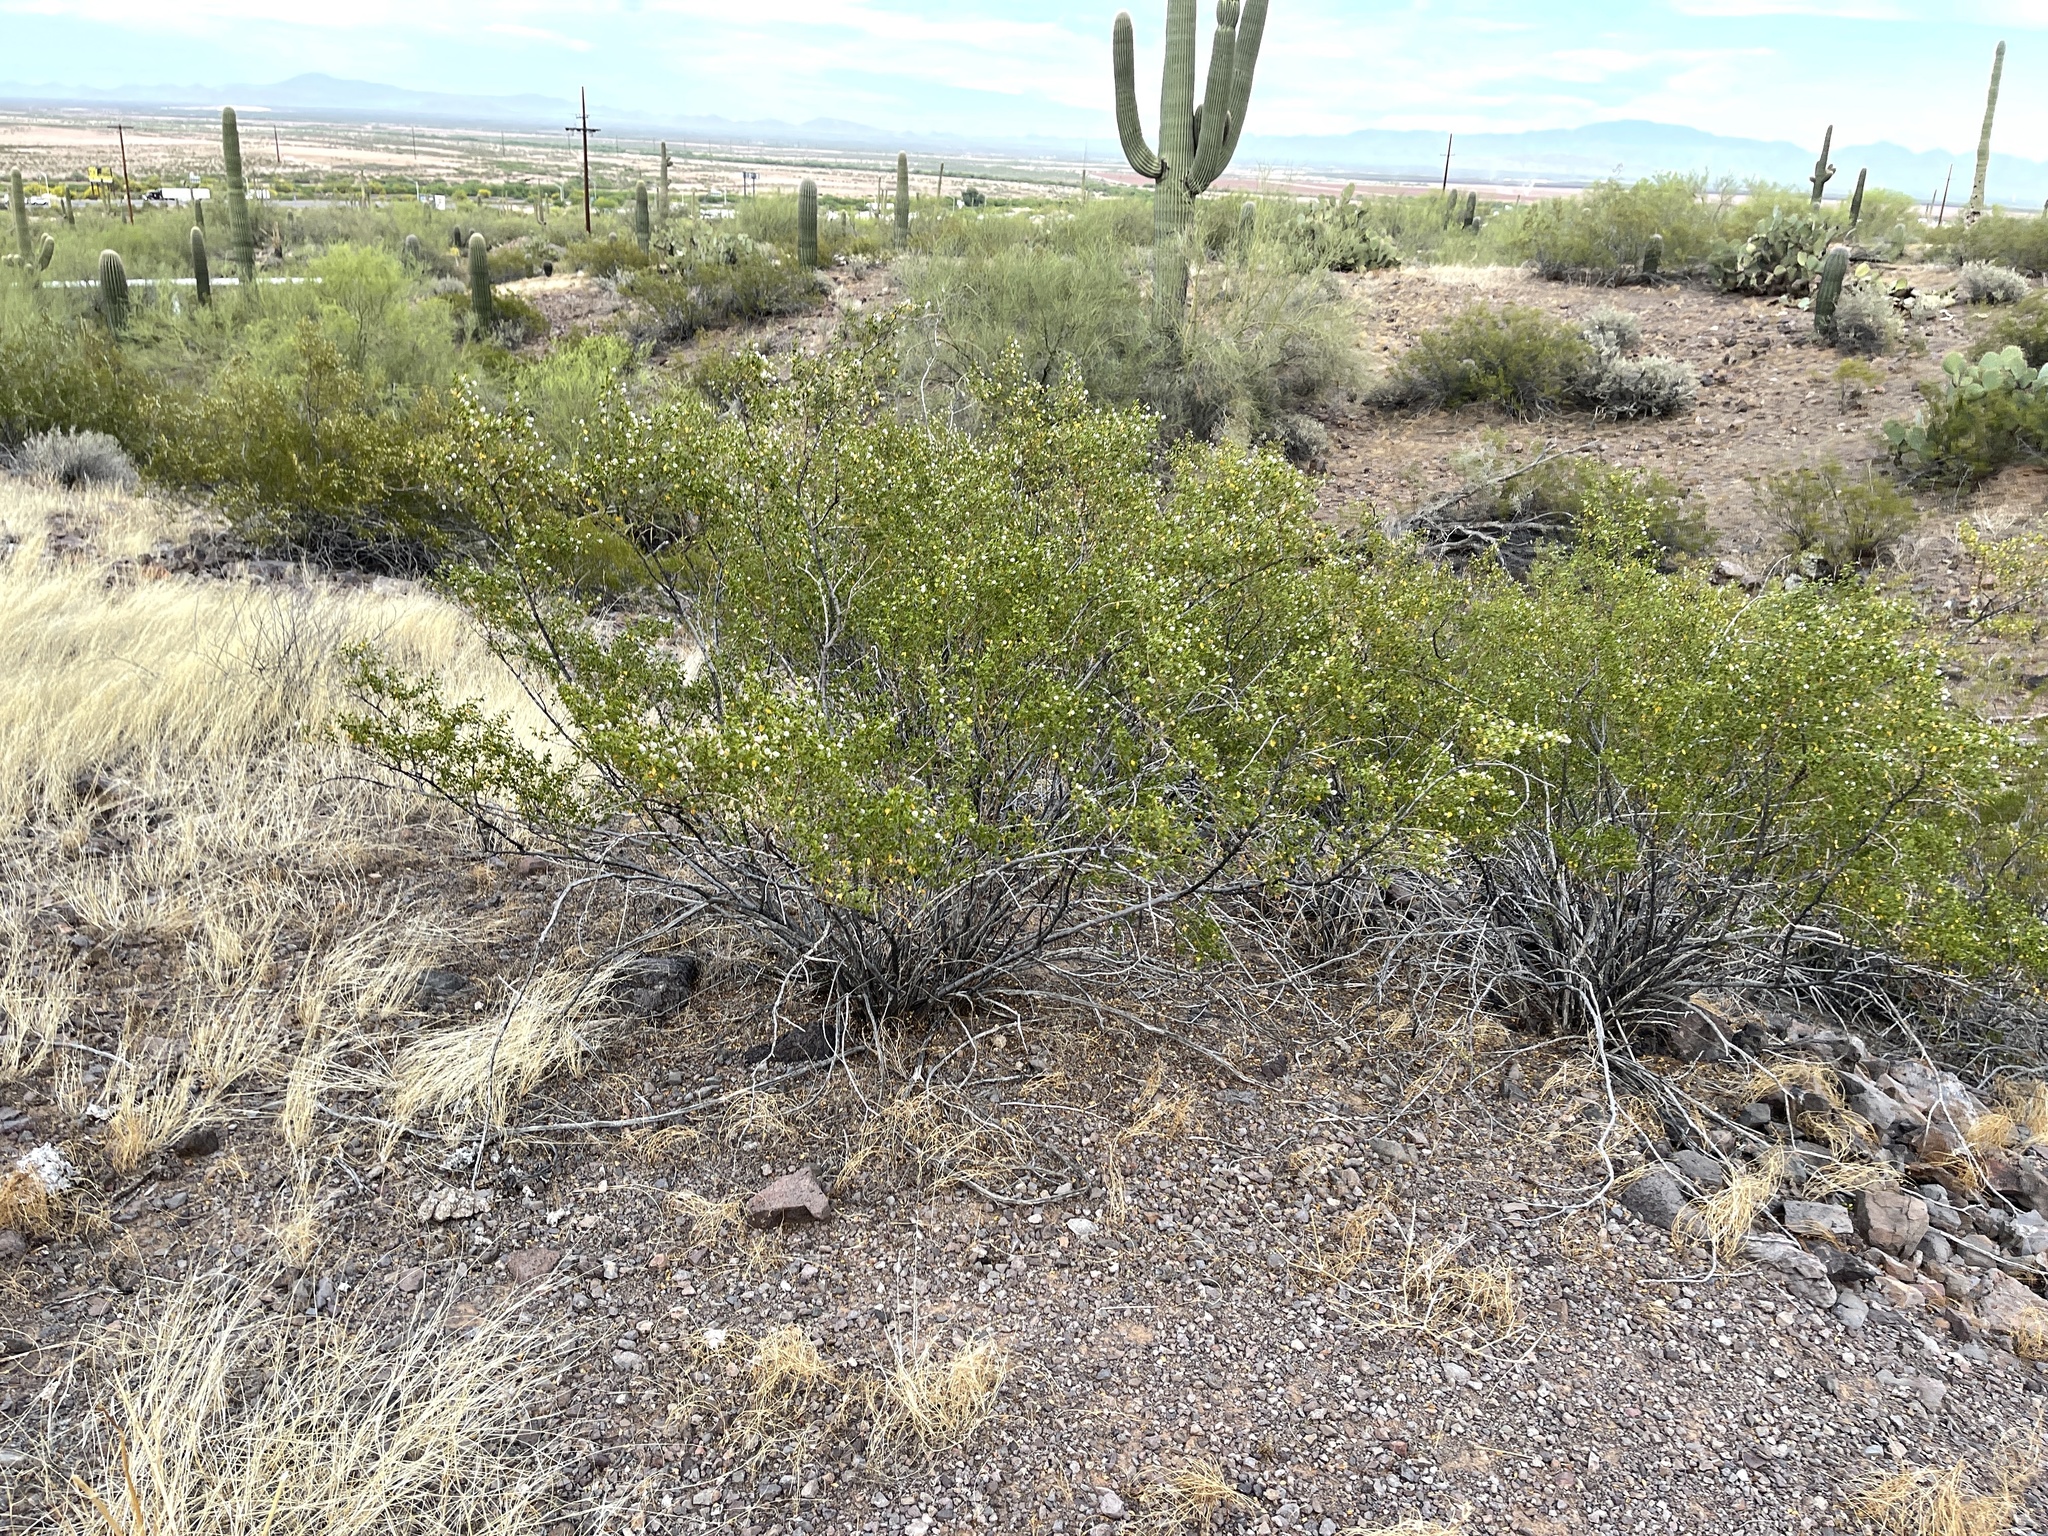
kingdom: Plantae
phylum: Tracheophyta
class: Magnoliopsida
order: Zygophyllales
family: Zygophyllaceae
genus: Larrea
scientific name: Larrea tridentata
